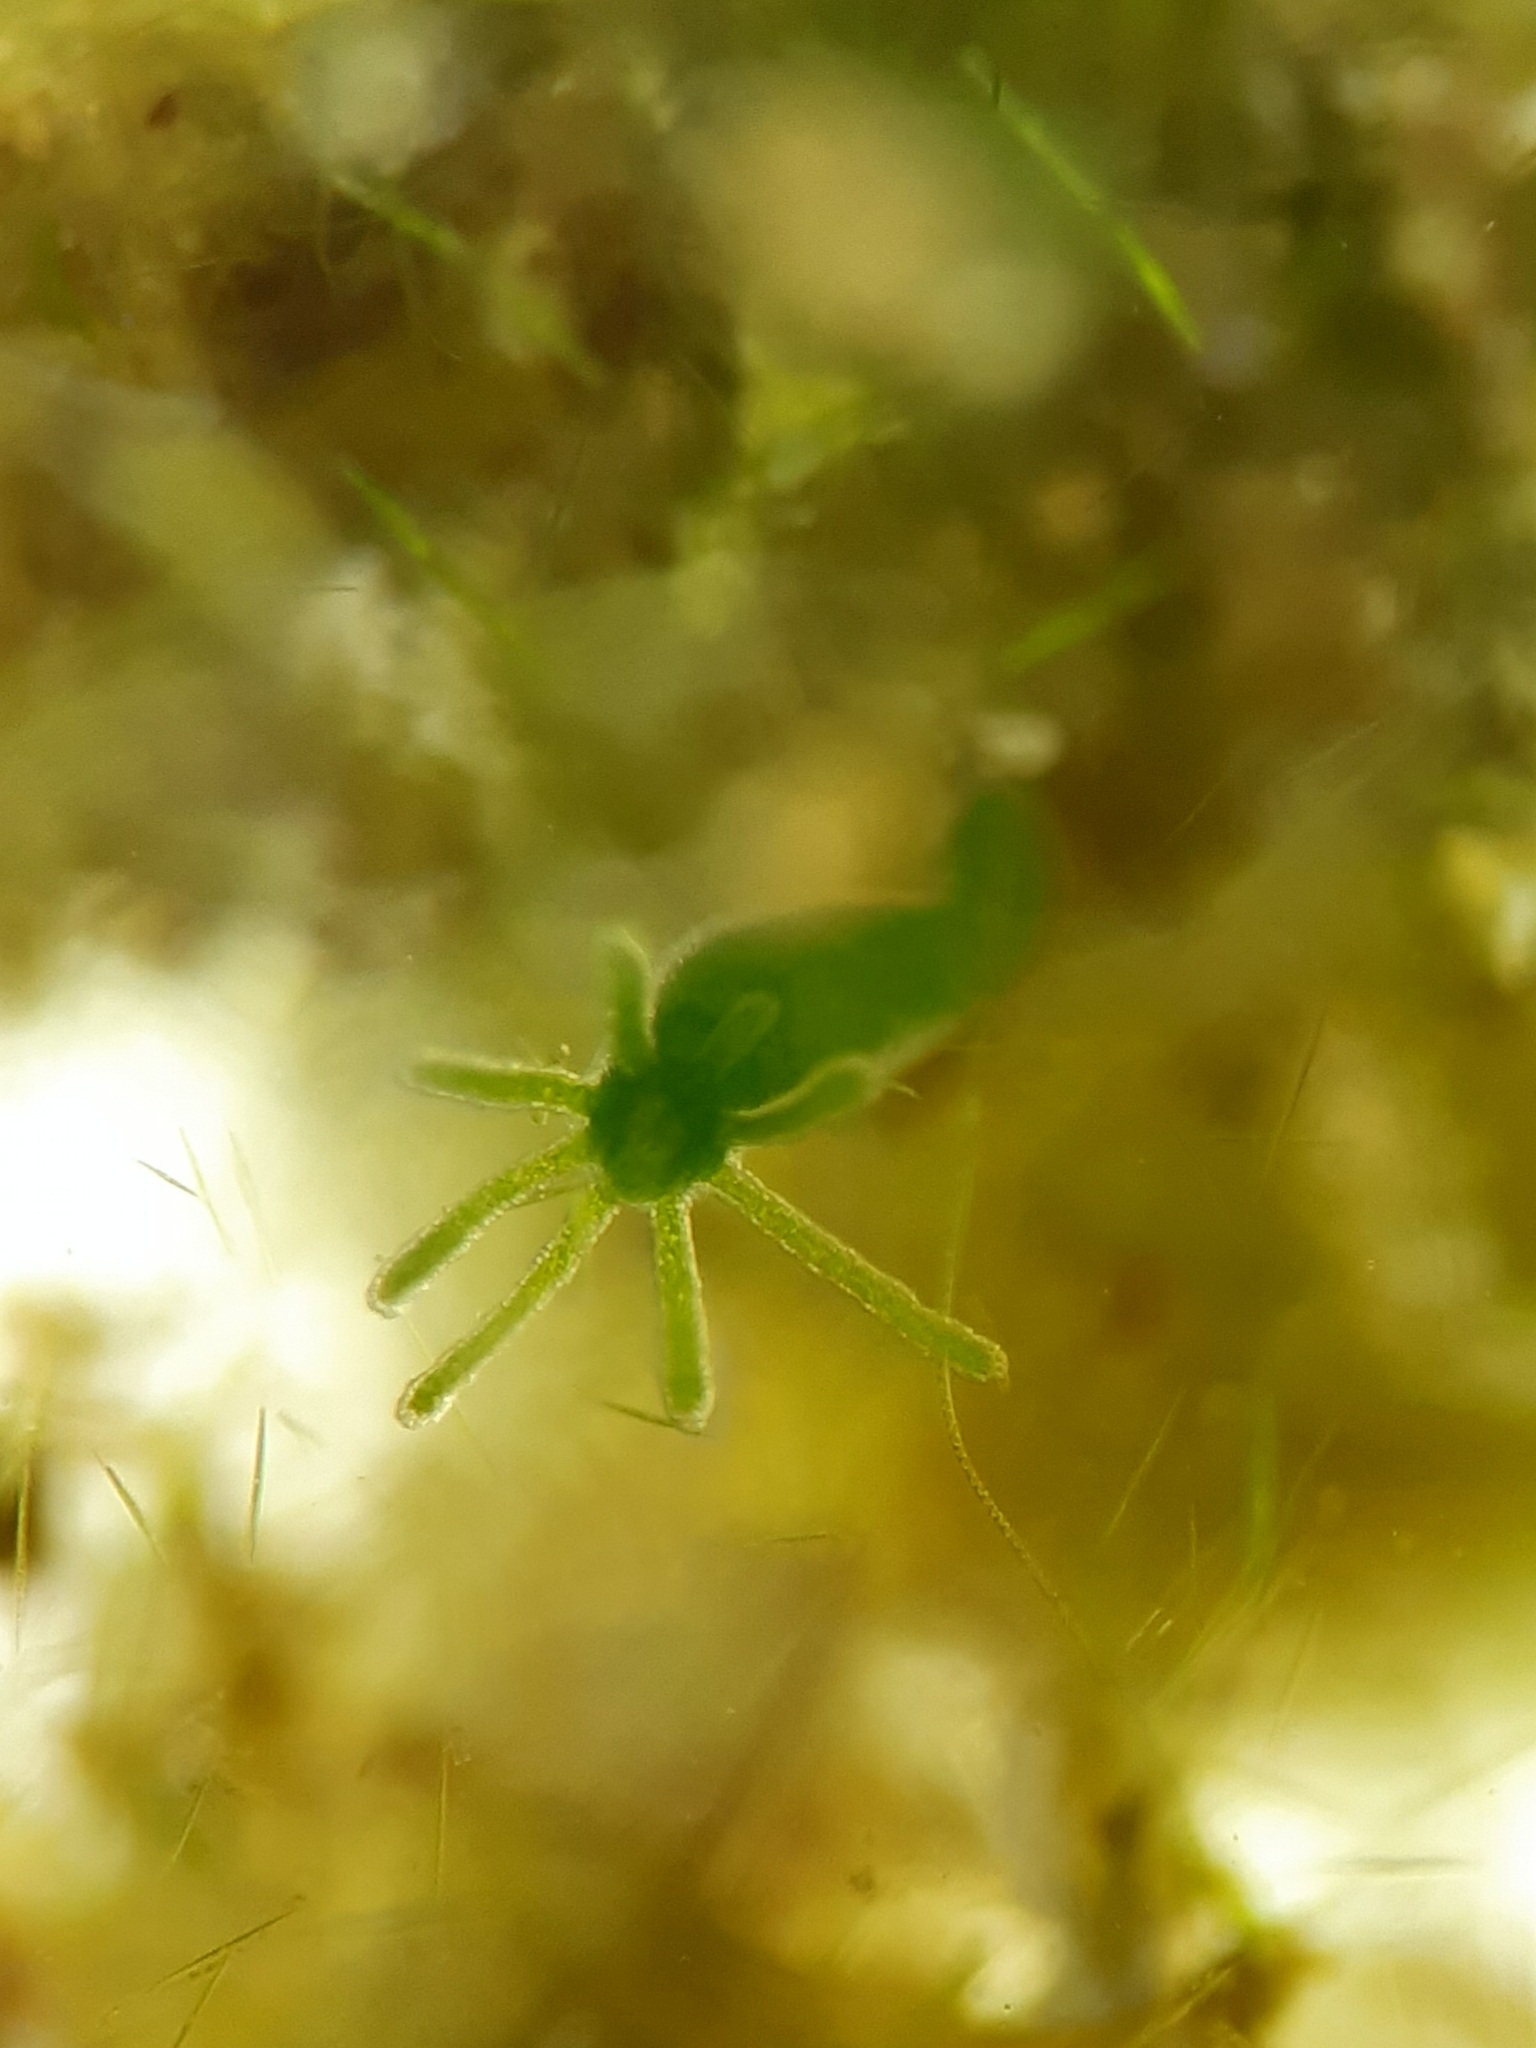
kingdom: Animalia
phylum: Cnidaria
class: Hydrozoa
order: Anthoathecata
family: Hydridae
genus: Hydra
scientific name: Hydra viridissima
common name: Green hydra
